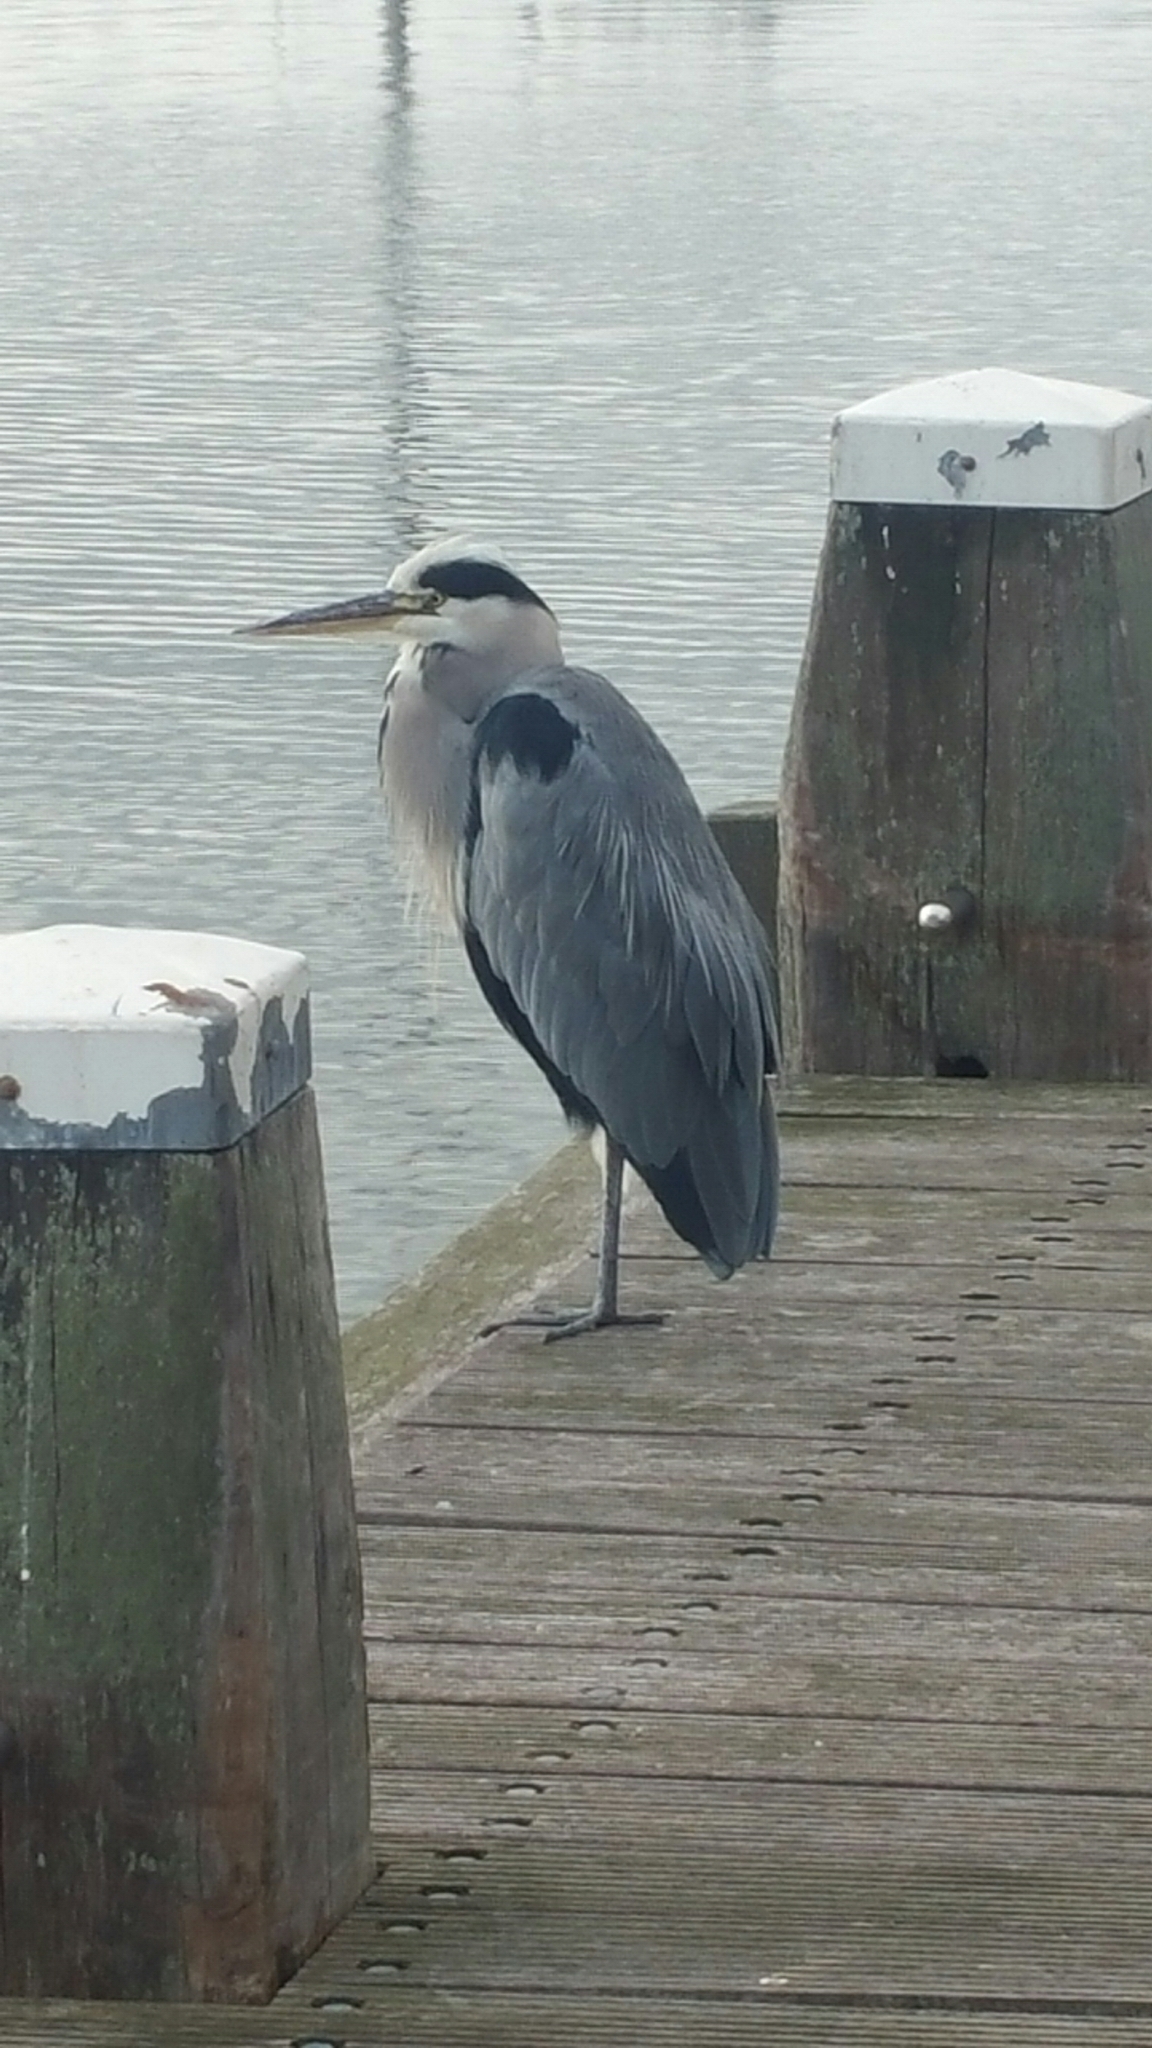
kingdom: Animalia
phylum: Chordata
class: Aves
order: Pelecaniformes
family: Ardeidae
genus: Ardea
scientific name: Ardea cinerea
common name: Grey heron
